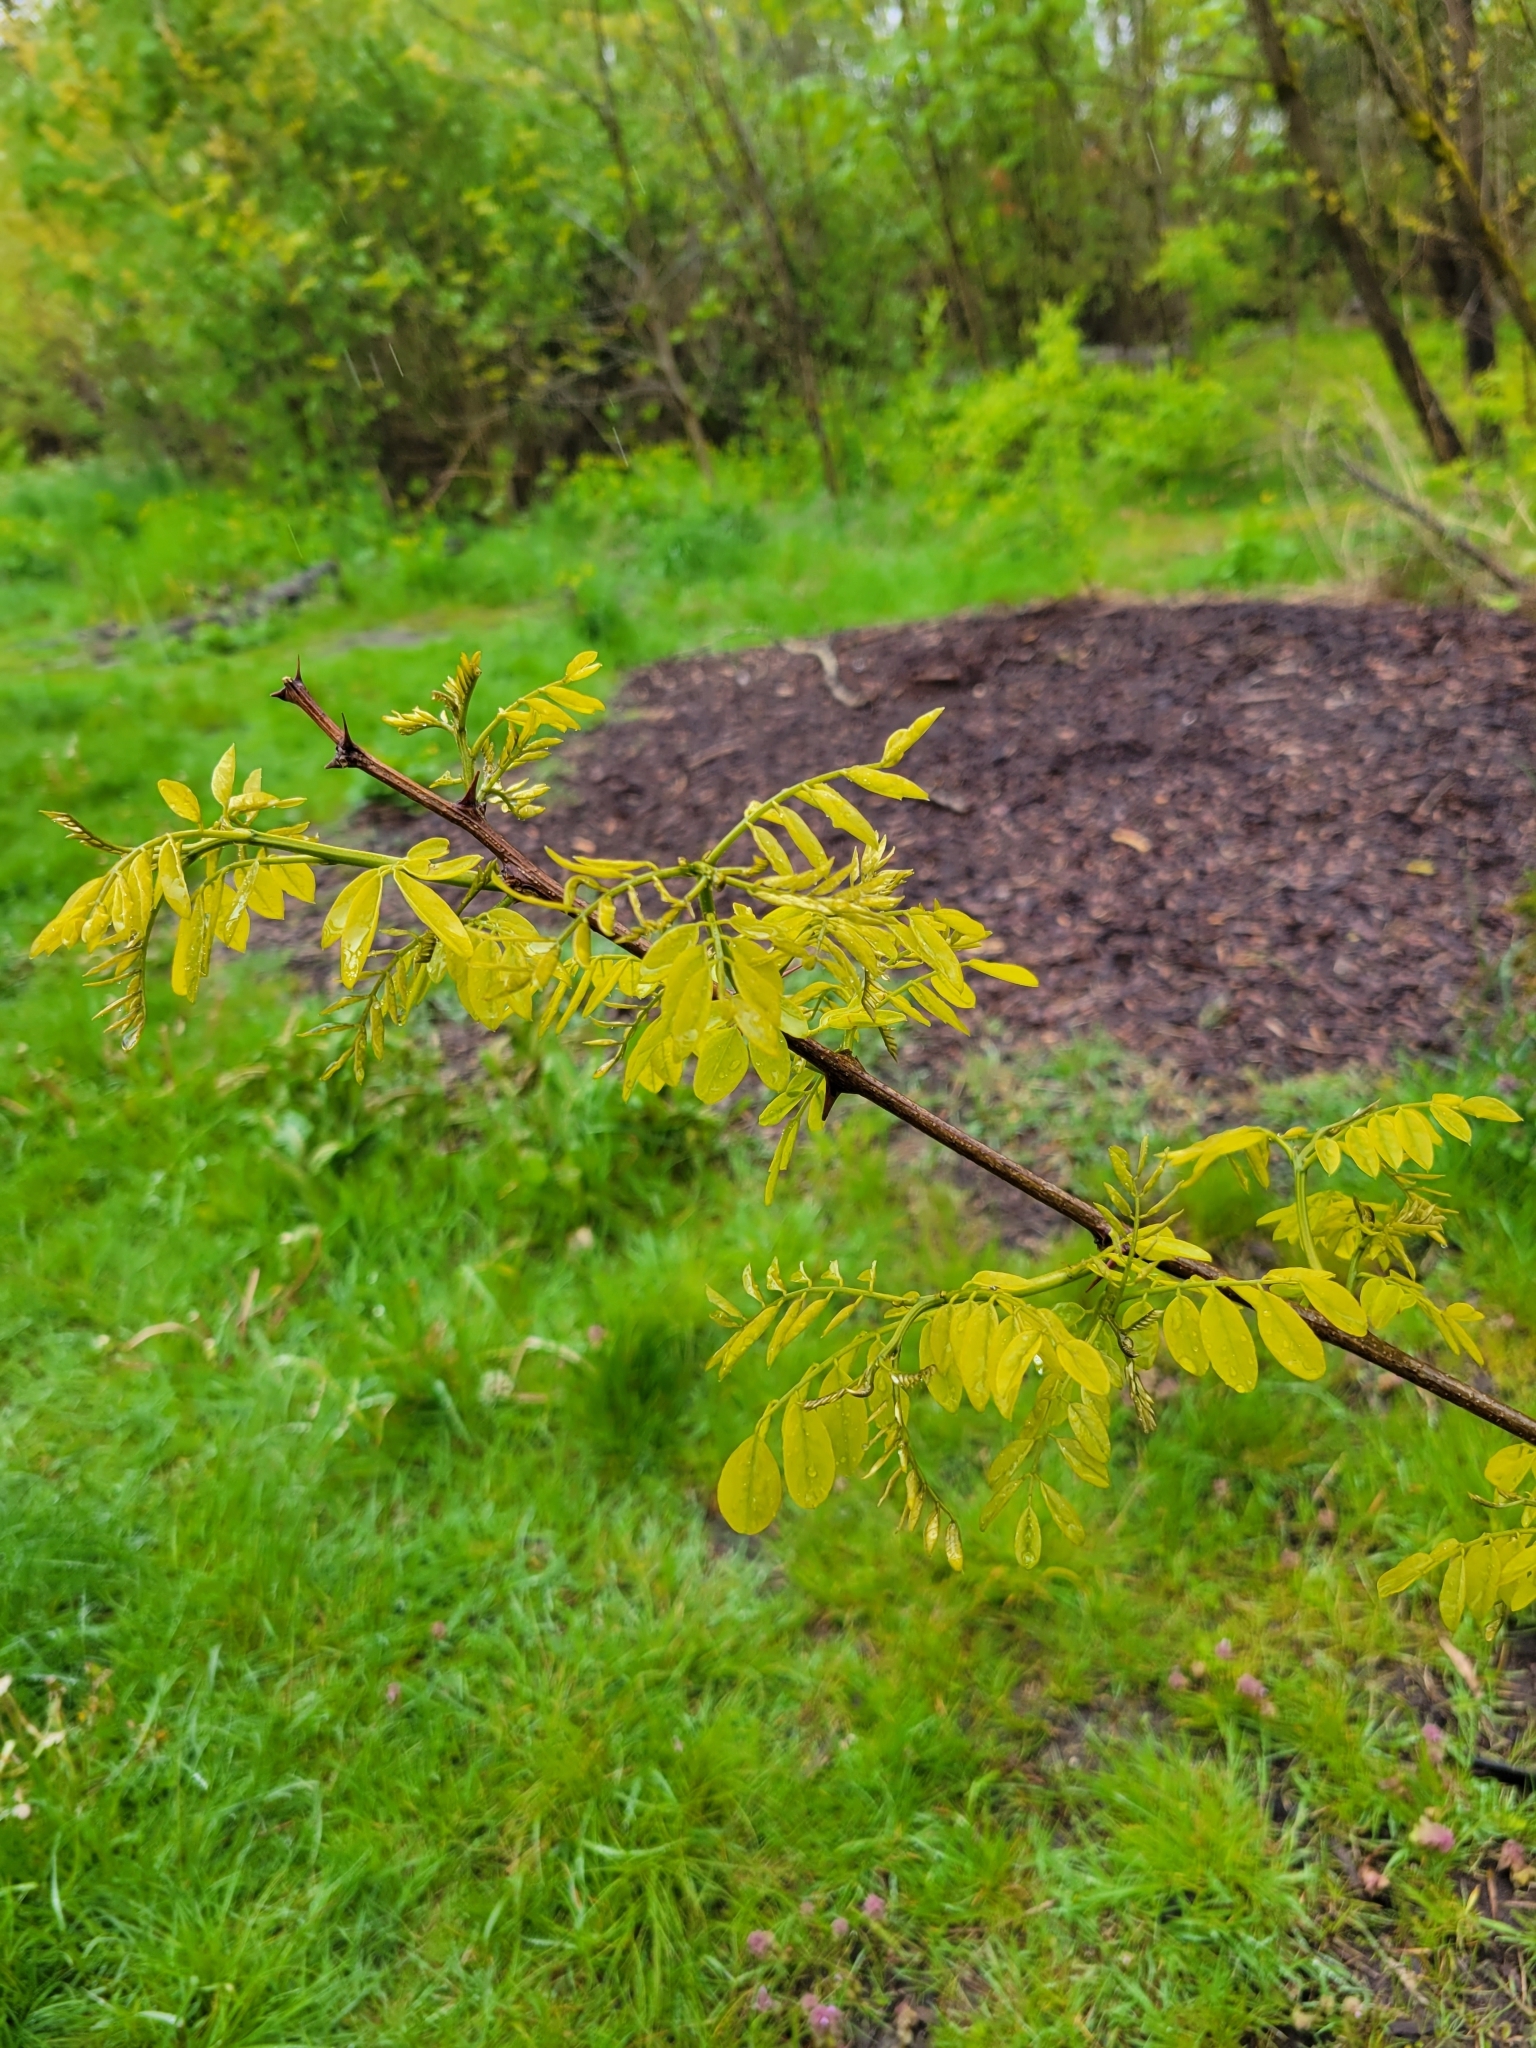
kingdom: Plantae
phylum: Tracheophyta
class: Magnoliopsida
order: Fabales
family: Fabaceae
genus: Robinia
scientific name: Robinia pseudoacacia
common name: Black locust
